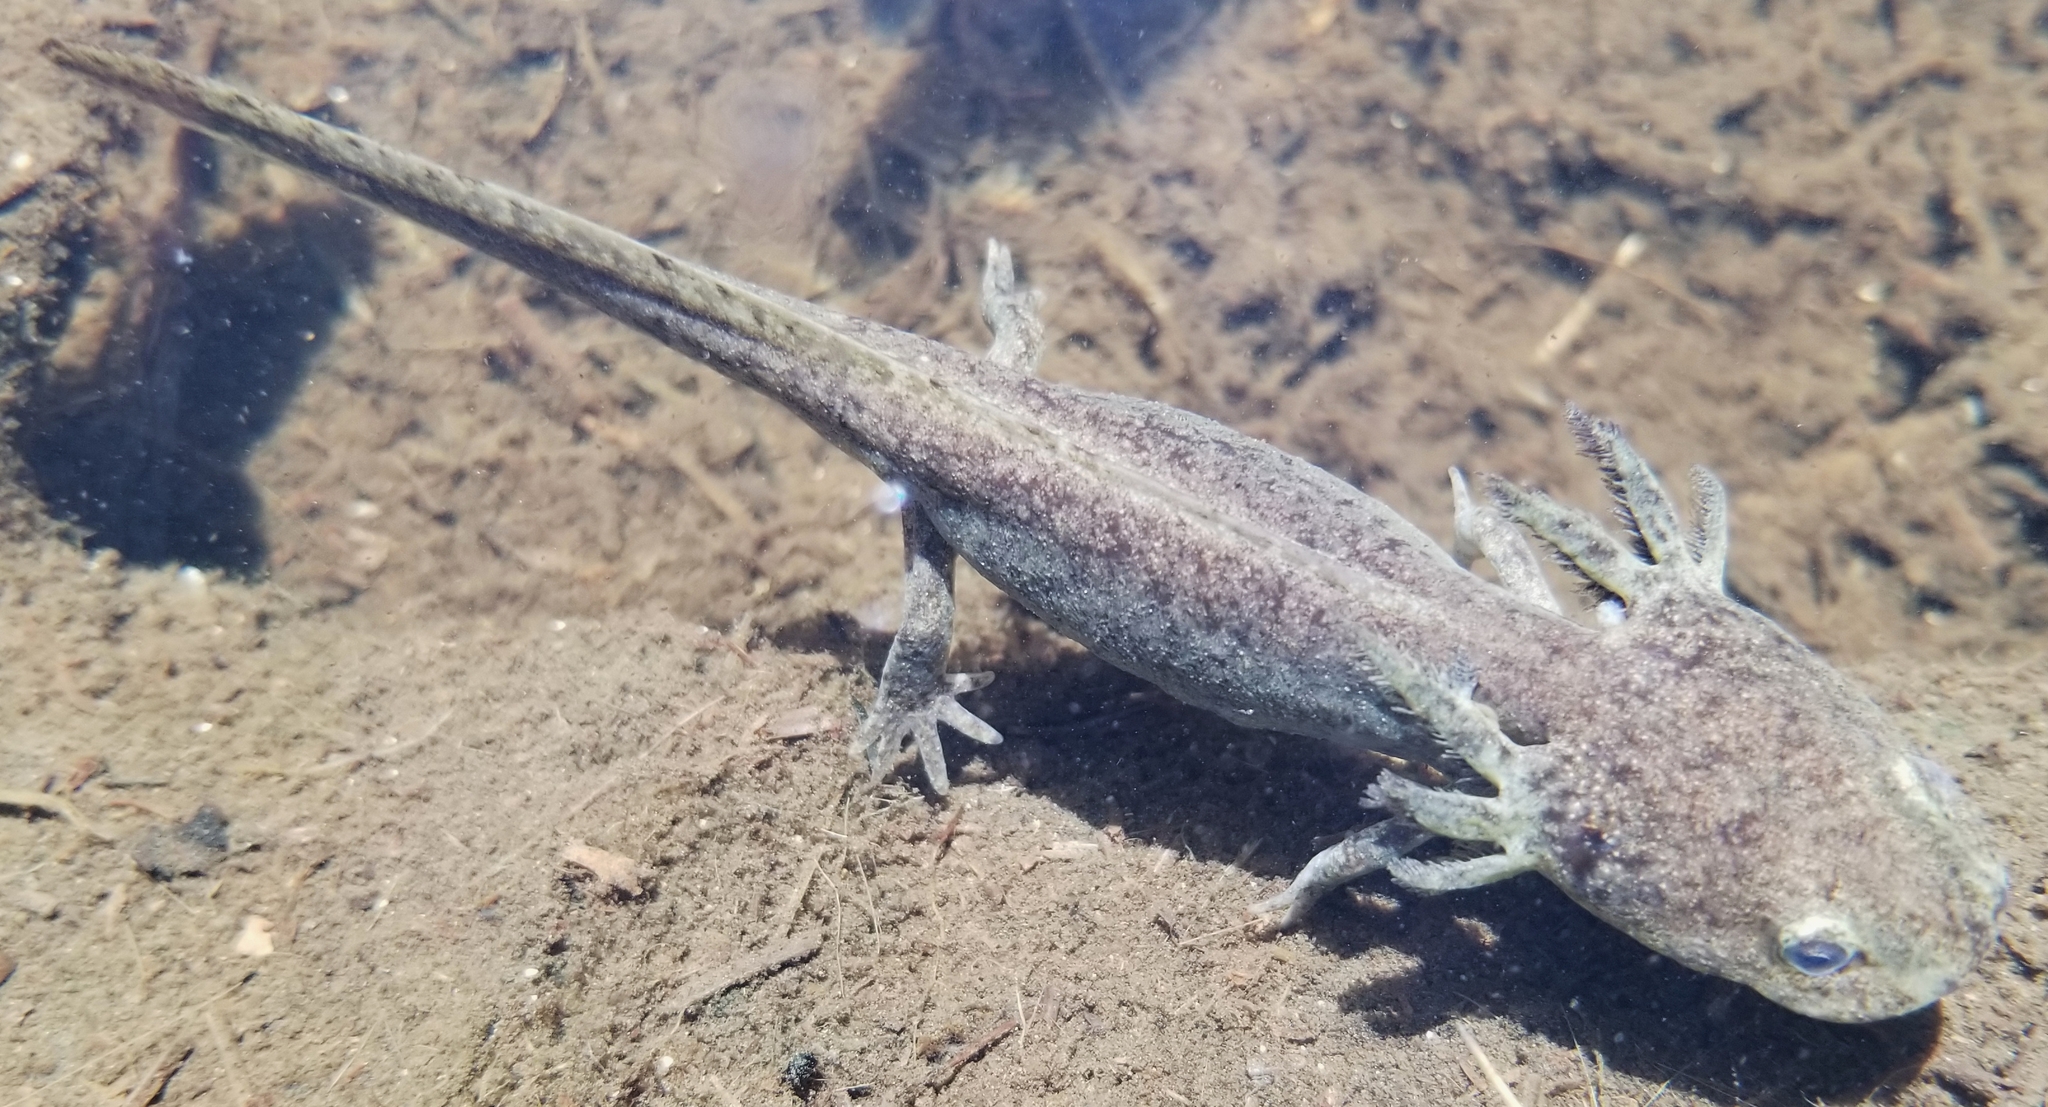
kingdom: Animalia
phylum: Chordata
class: Amphibia
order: Caudata
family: Ambystomatidae
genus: Ambystoma
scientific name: Ambystoma gracile
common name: Northwestern salamander
